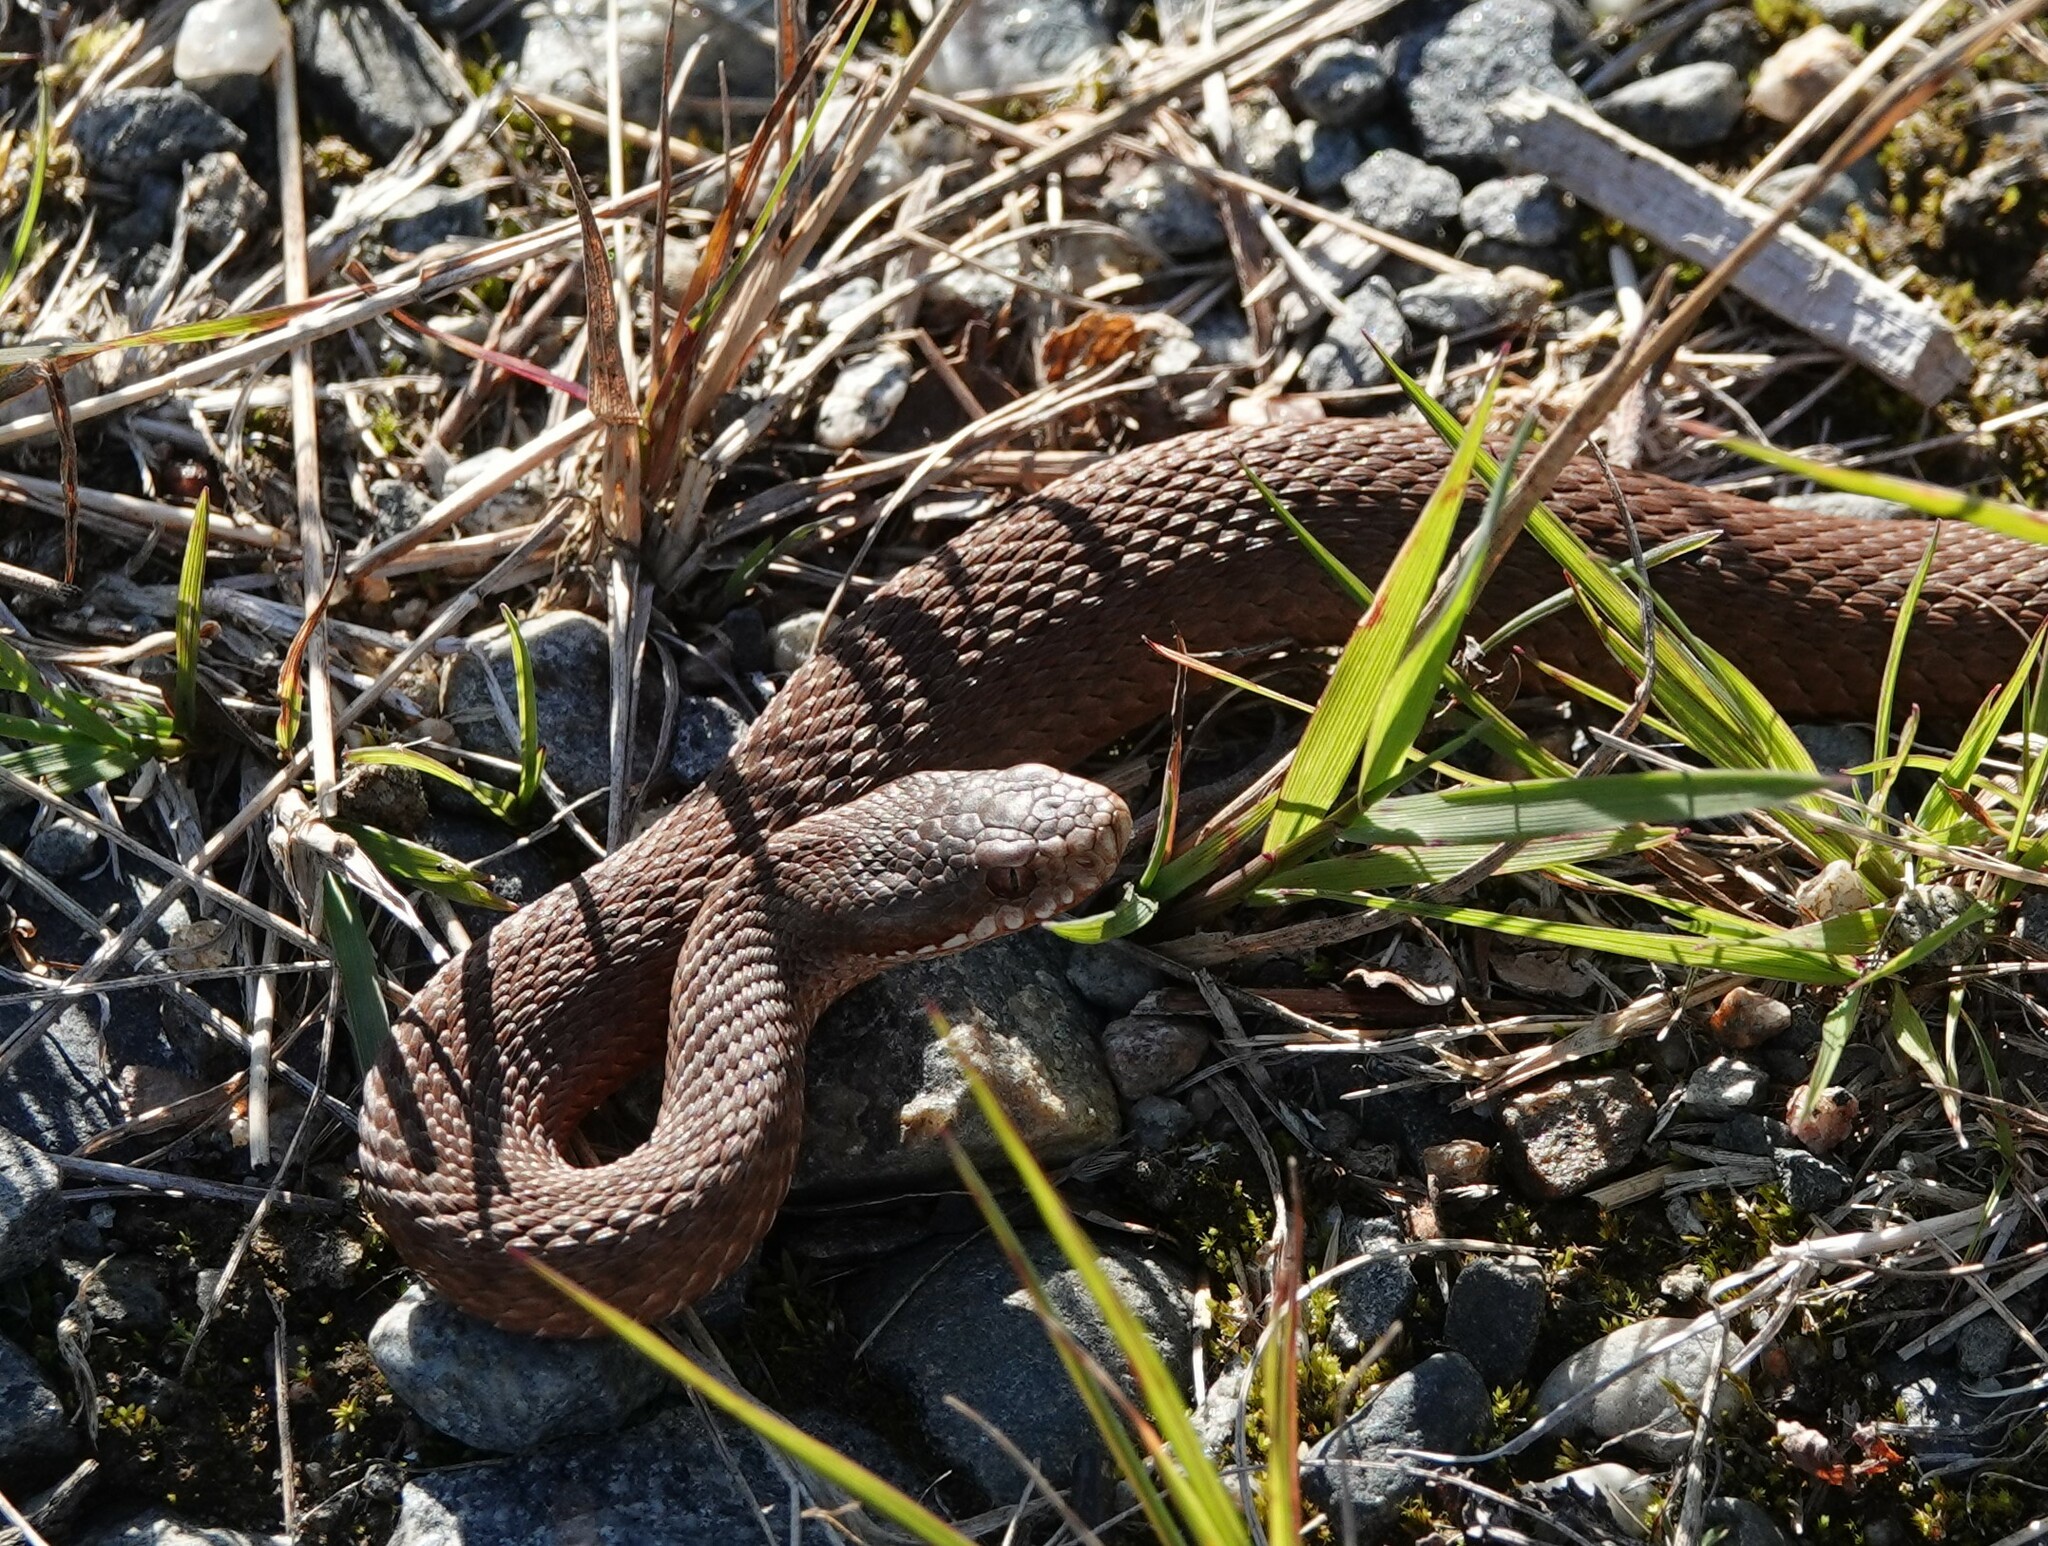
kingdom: Animalia
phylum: Chordata
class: Squamata
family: Viperidae
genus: Vipera
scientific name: Vipera berus
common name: Adder
